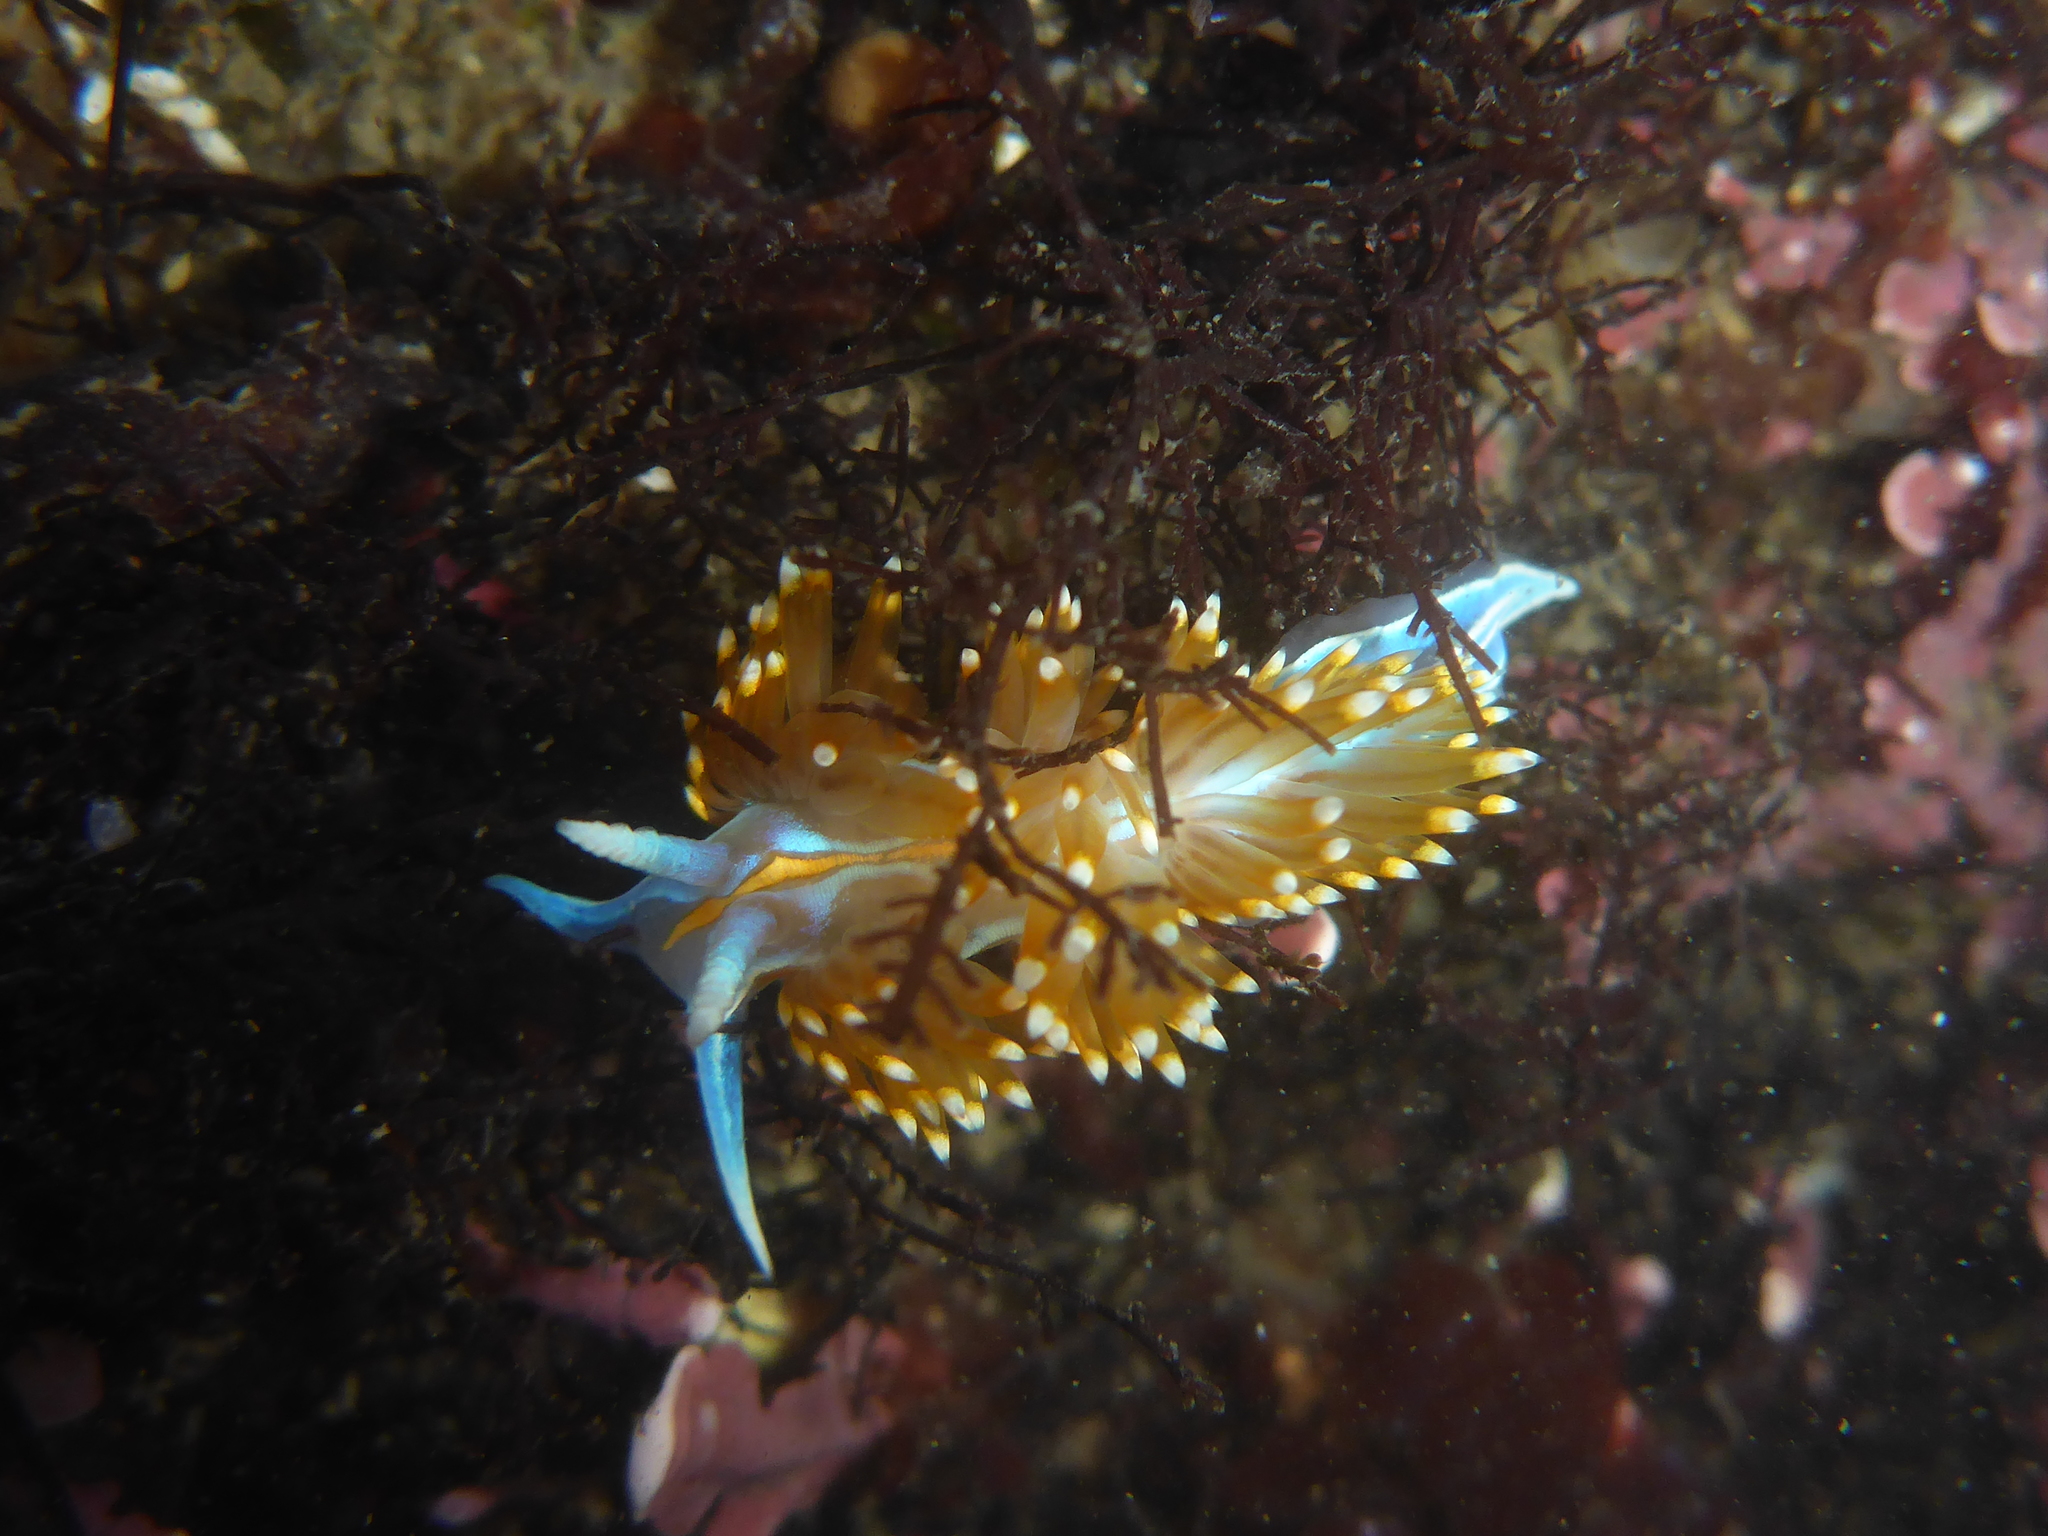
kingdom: Animalia
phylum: Mollusca
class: Gastropoda
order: Nudibranchia
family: Myrrhinidae
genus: Hermissenda
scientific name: Hermissenda opalescens
